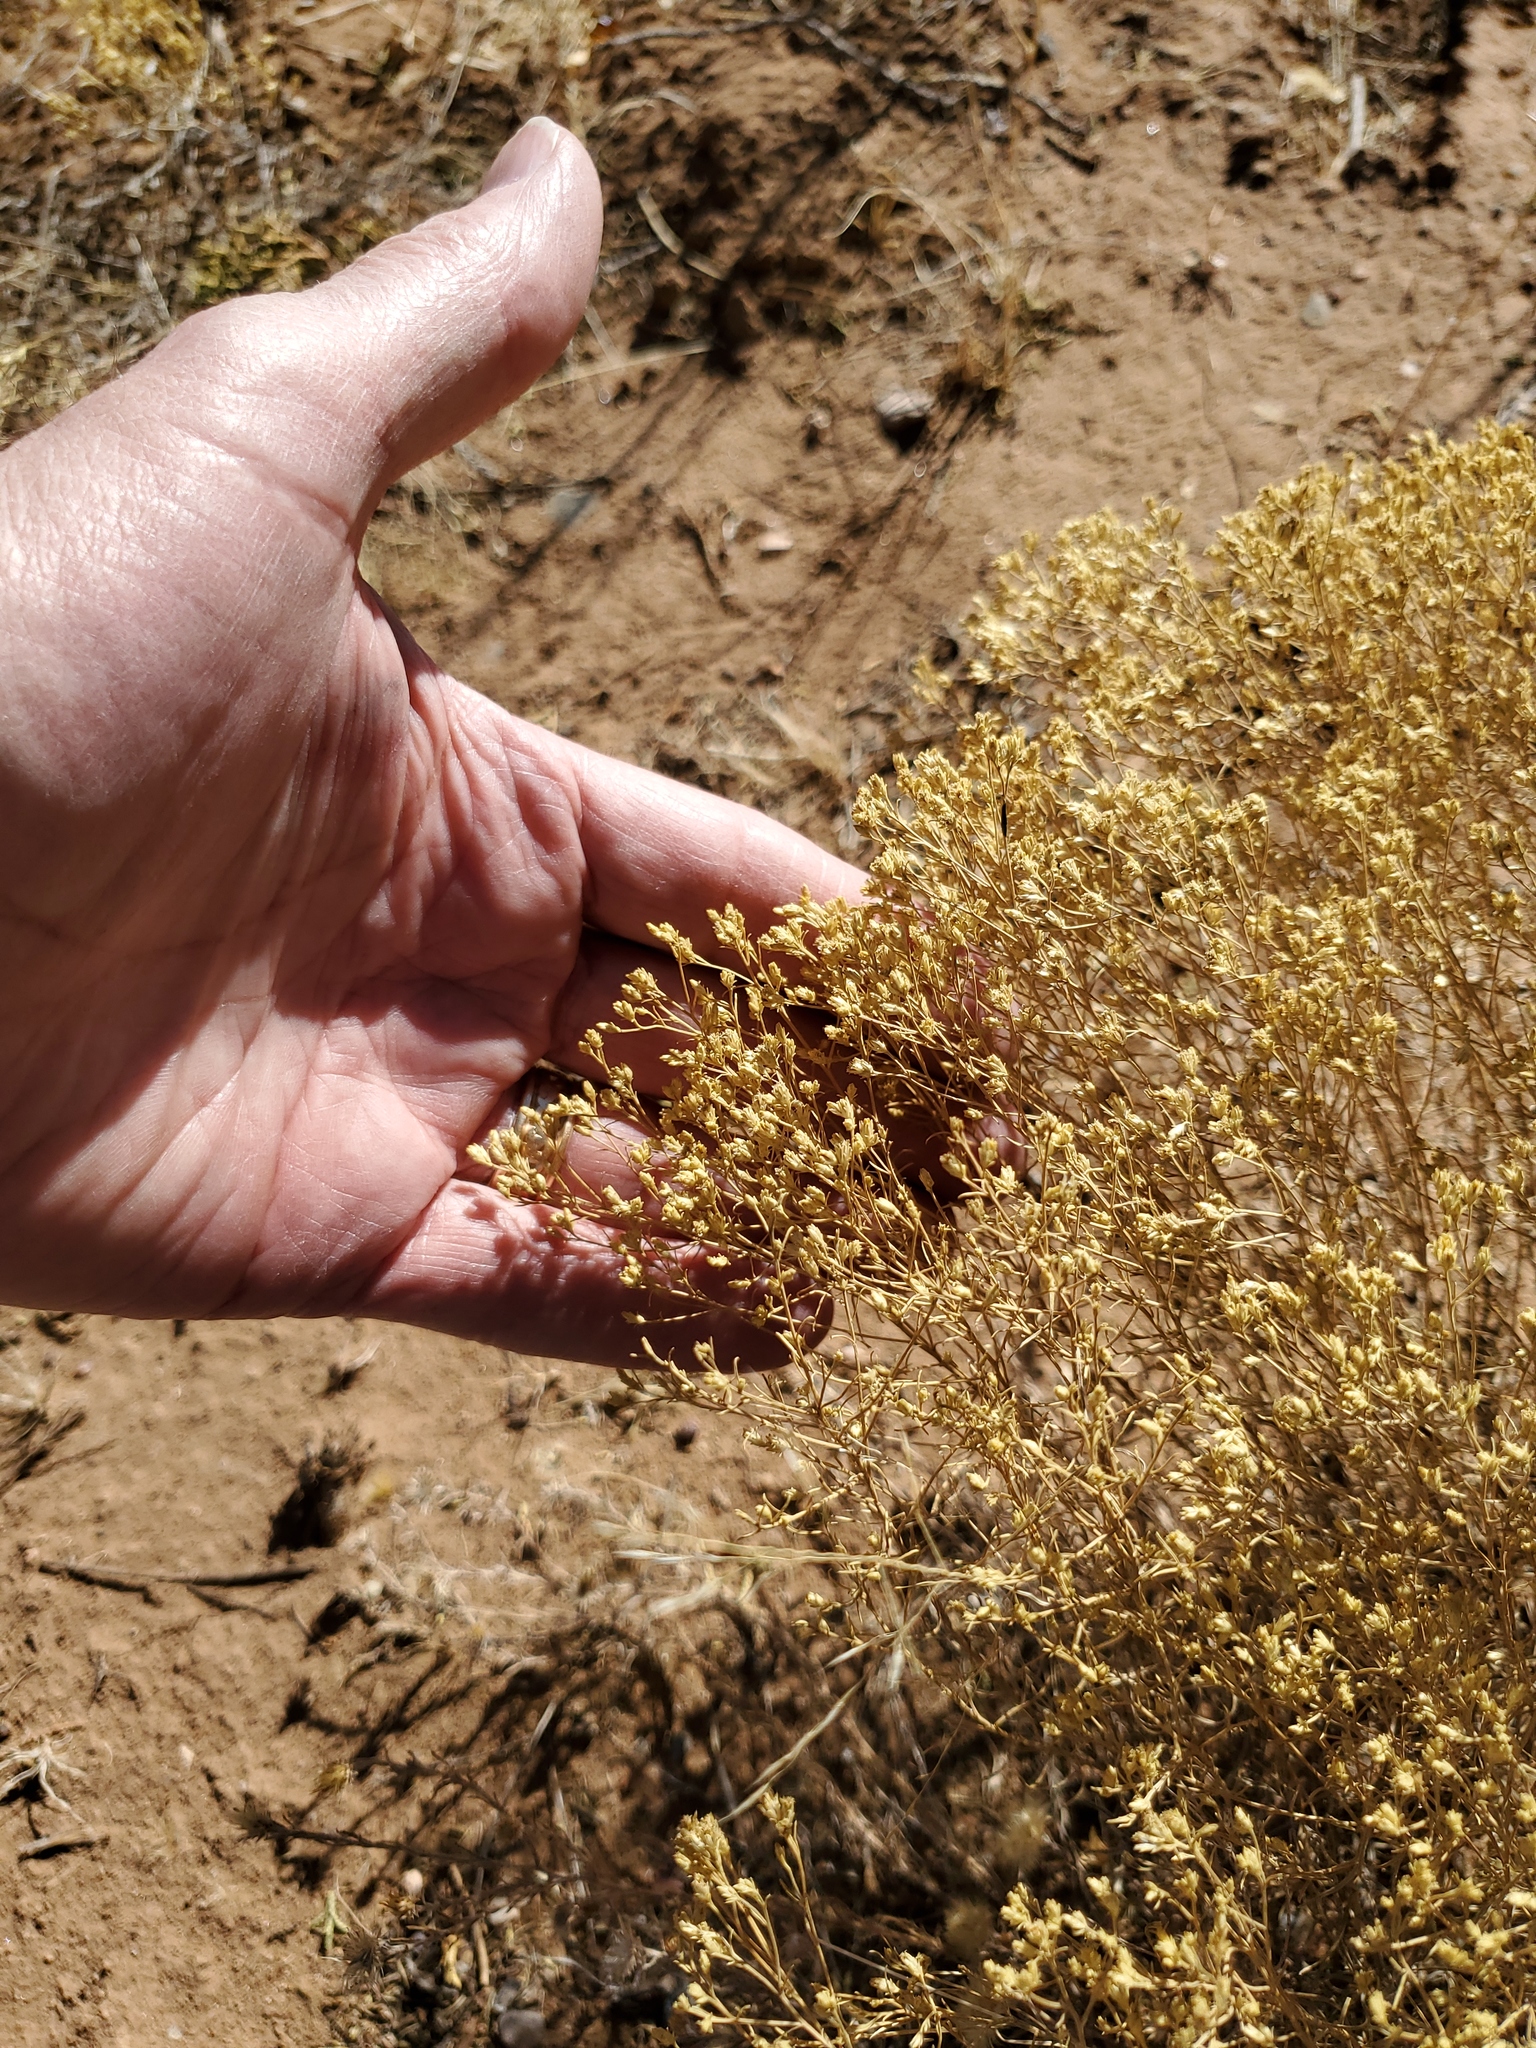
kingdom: Plantae
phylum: Tracheophyta
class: Magnoliopsida
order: Asterales
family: Asteraceae
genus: Gutierrezia
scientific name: Gutierrezia sarothrae
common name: Broom snakeweed
